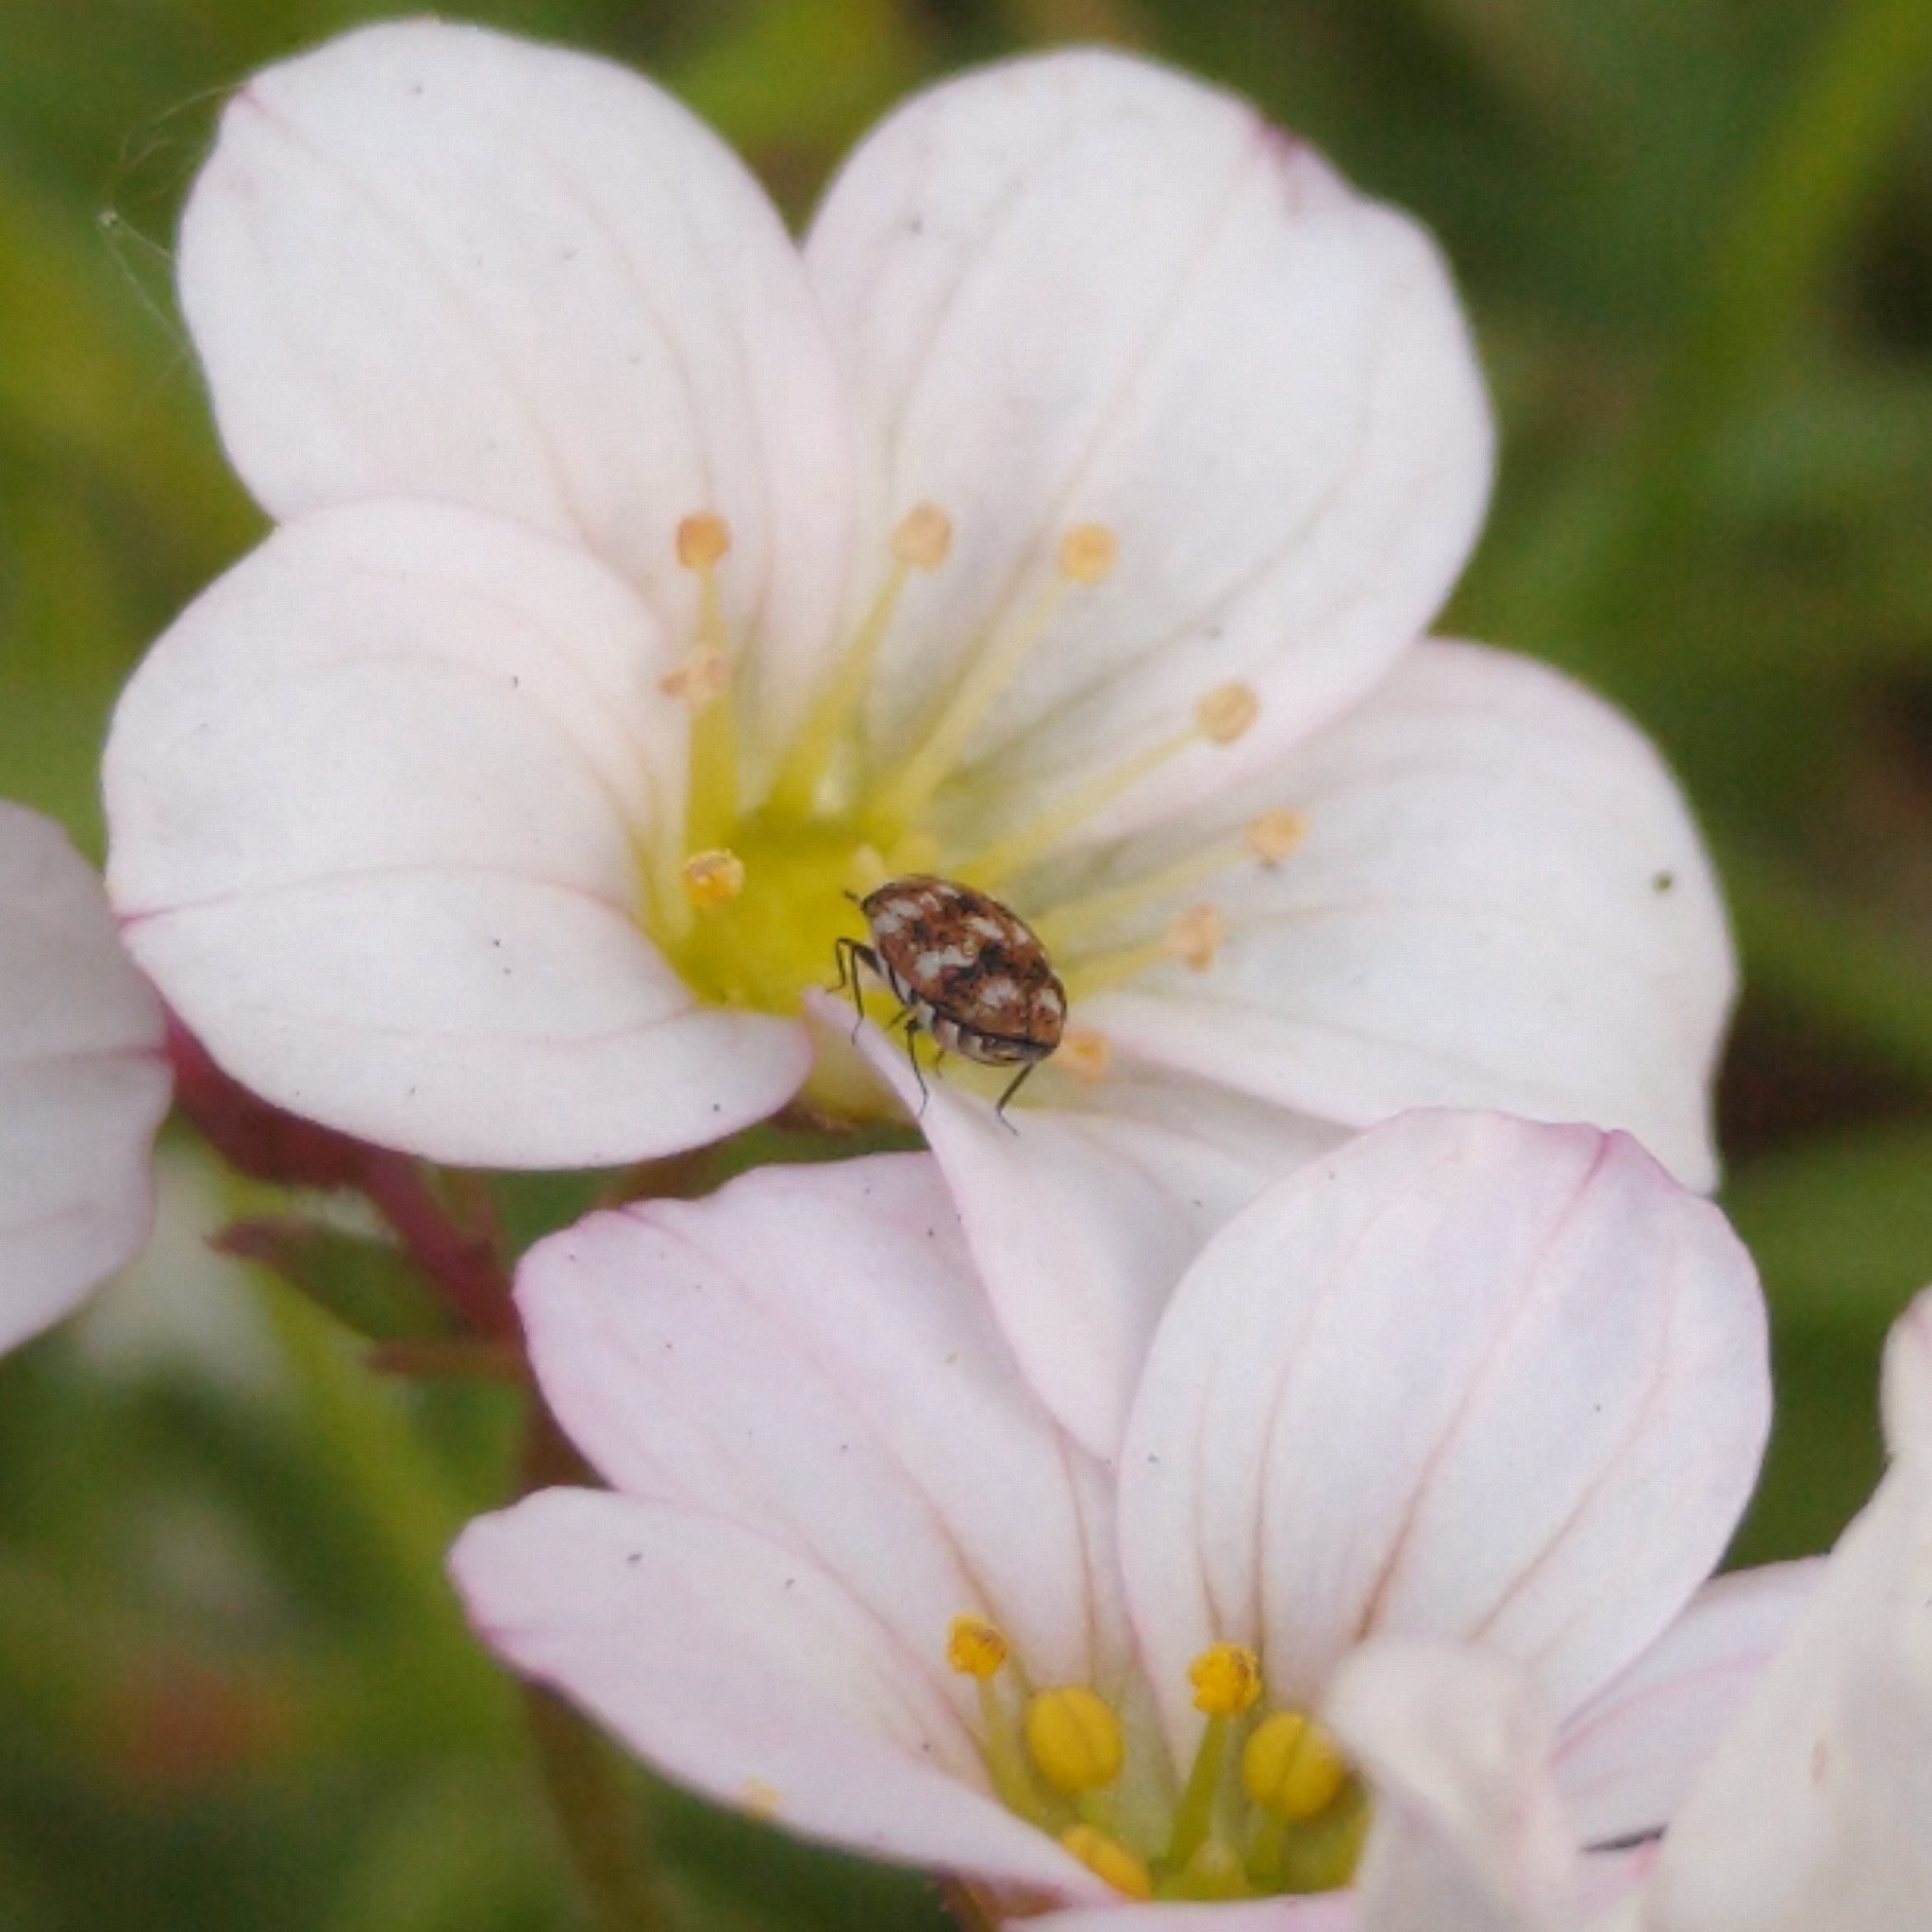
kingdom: Animalia
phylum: Arthropoda
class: Insecta
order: Coleoptera
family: Dermestidae
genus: Anthrenus
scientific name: Anthrenus verbasci
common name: Varied carpet beetle
